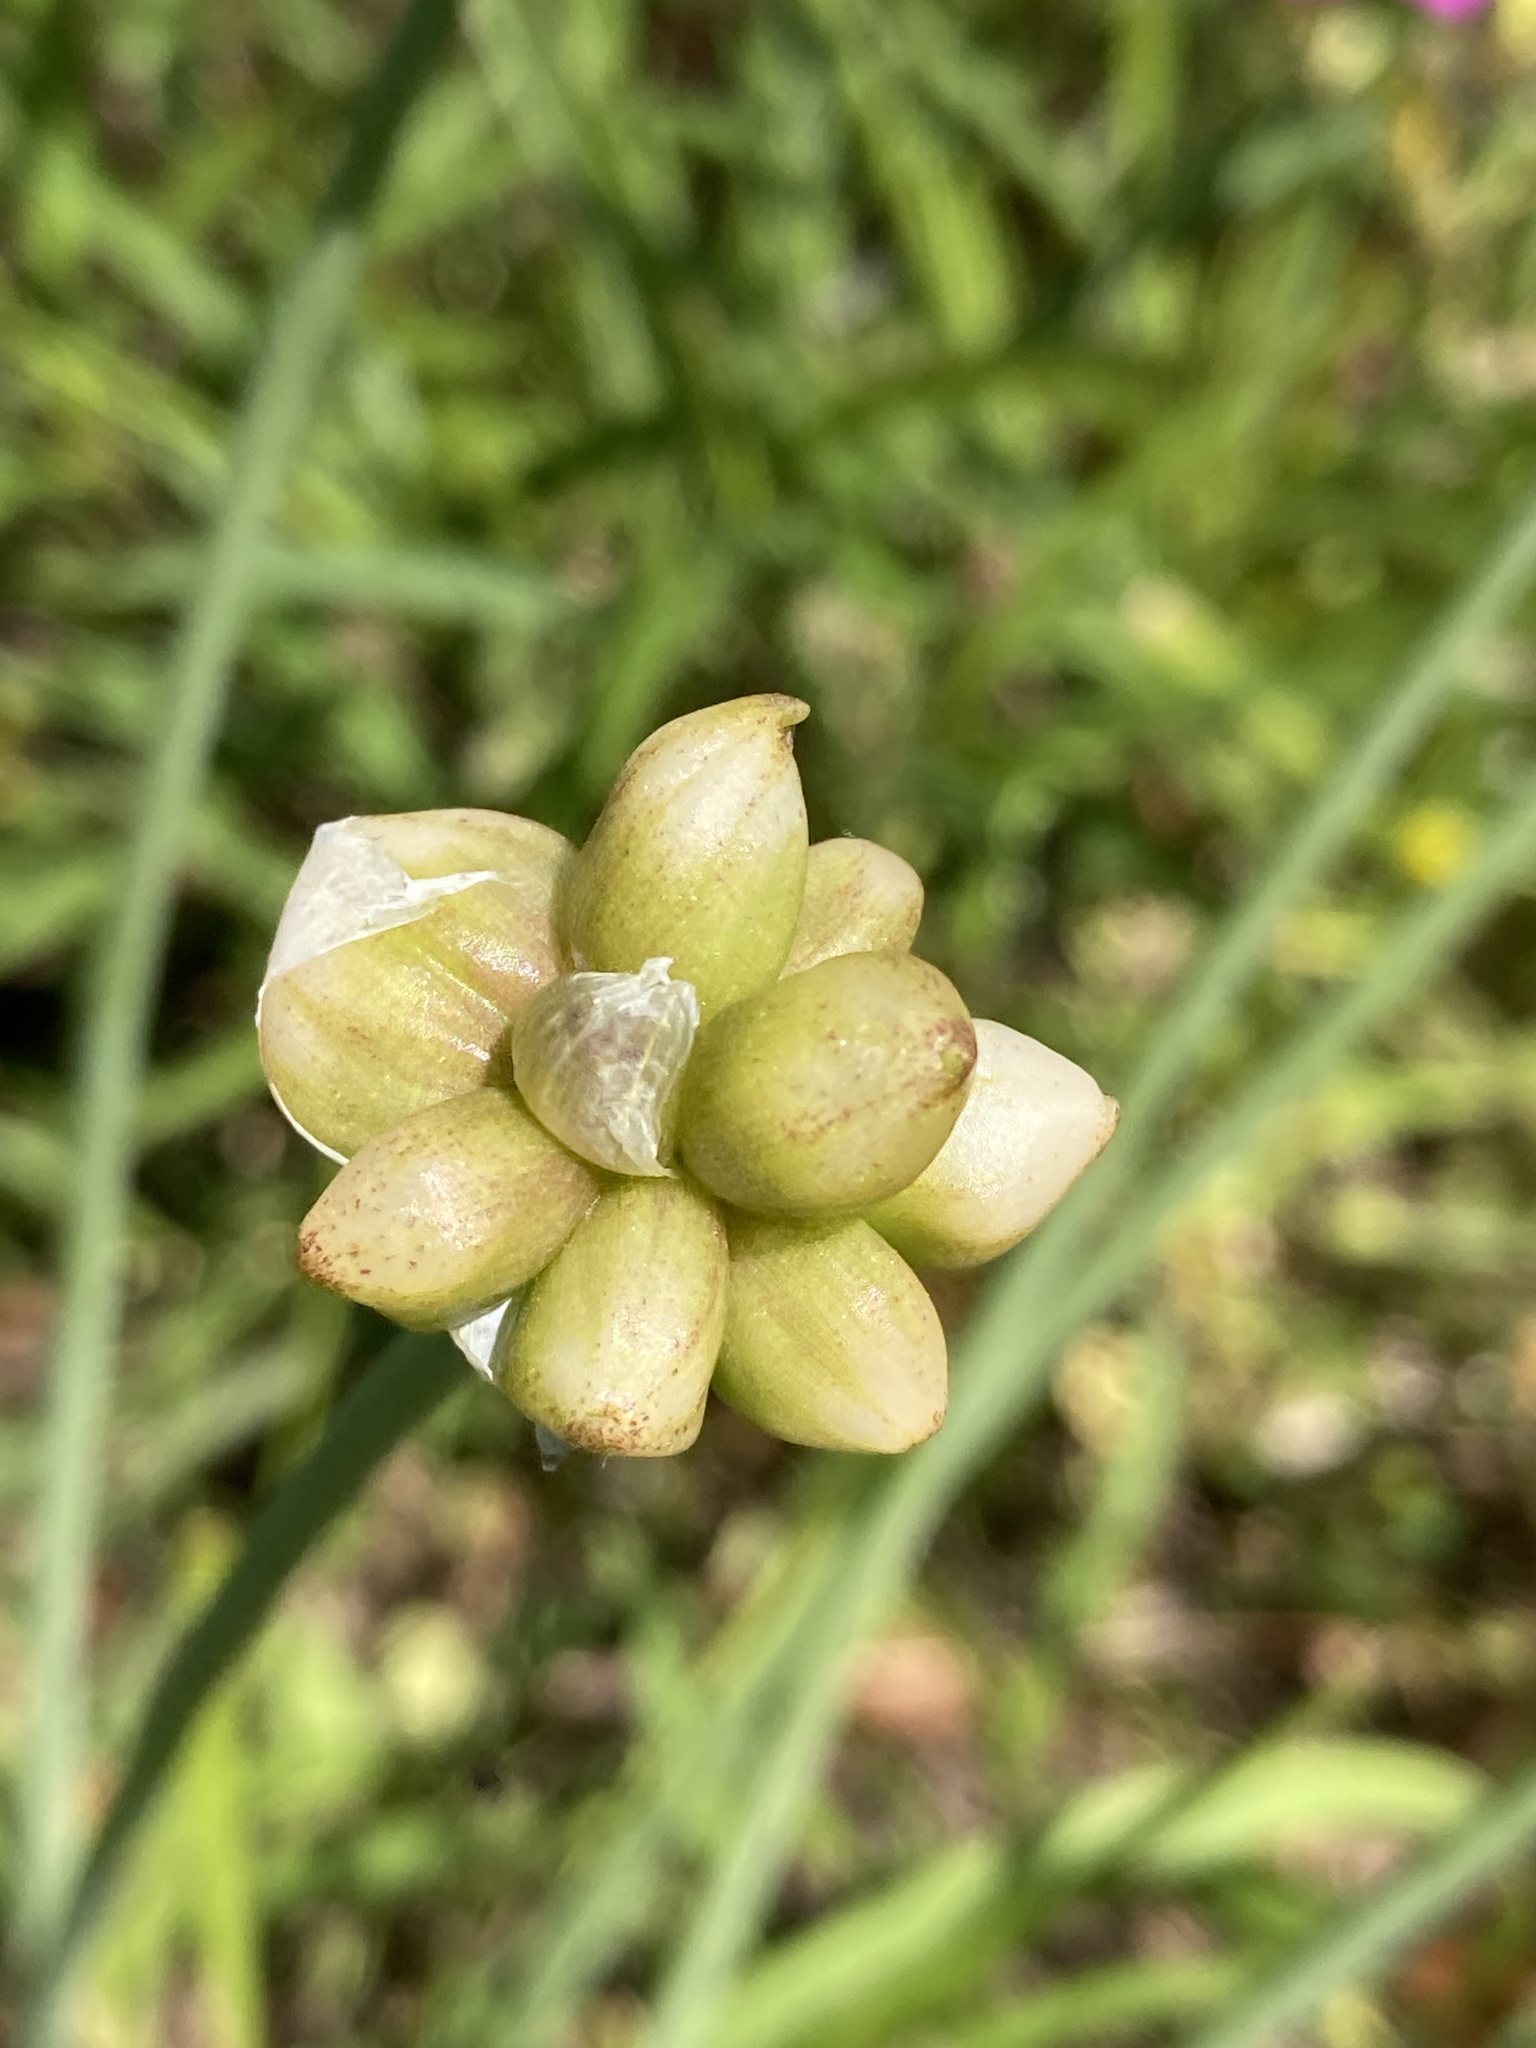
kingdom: Plantae
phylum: Tracheophyta
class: Liliopsida
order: Asparagales
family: Amaryllidaceae
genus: Allium
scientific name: Allium canadense
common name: Meadow garlic
